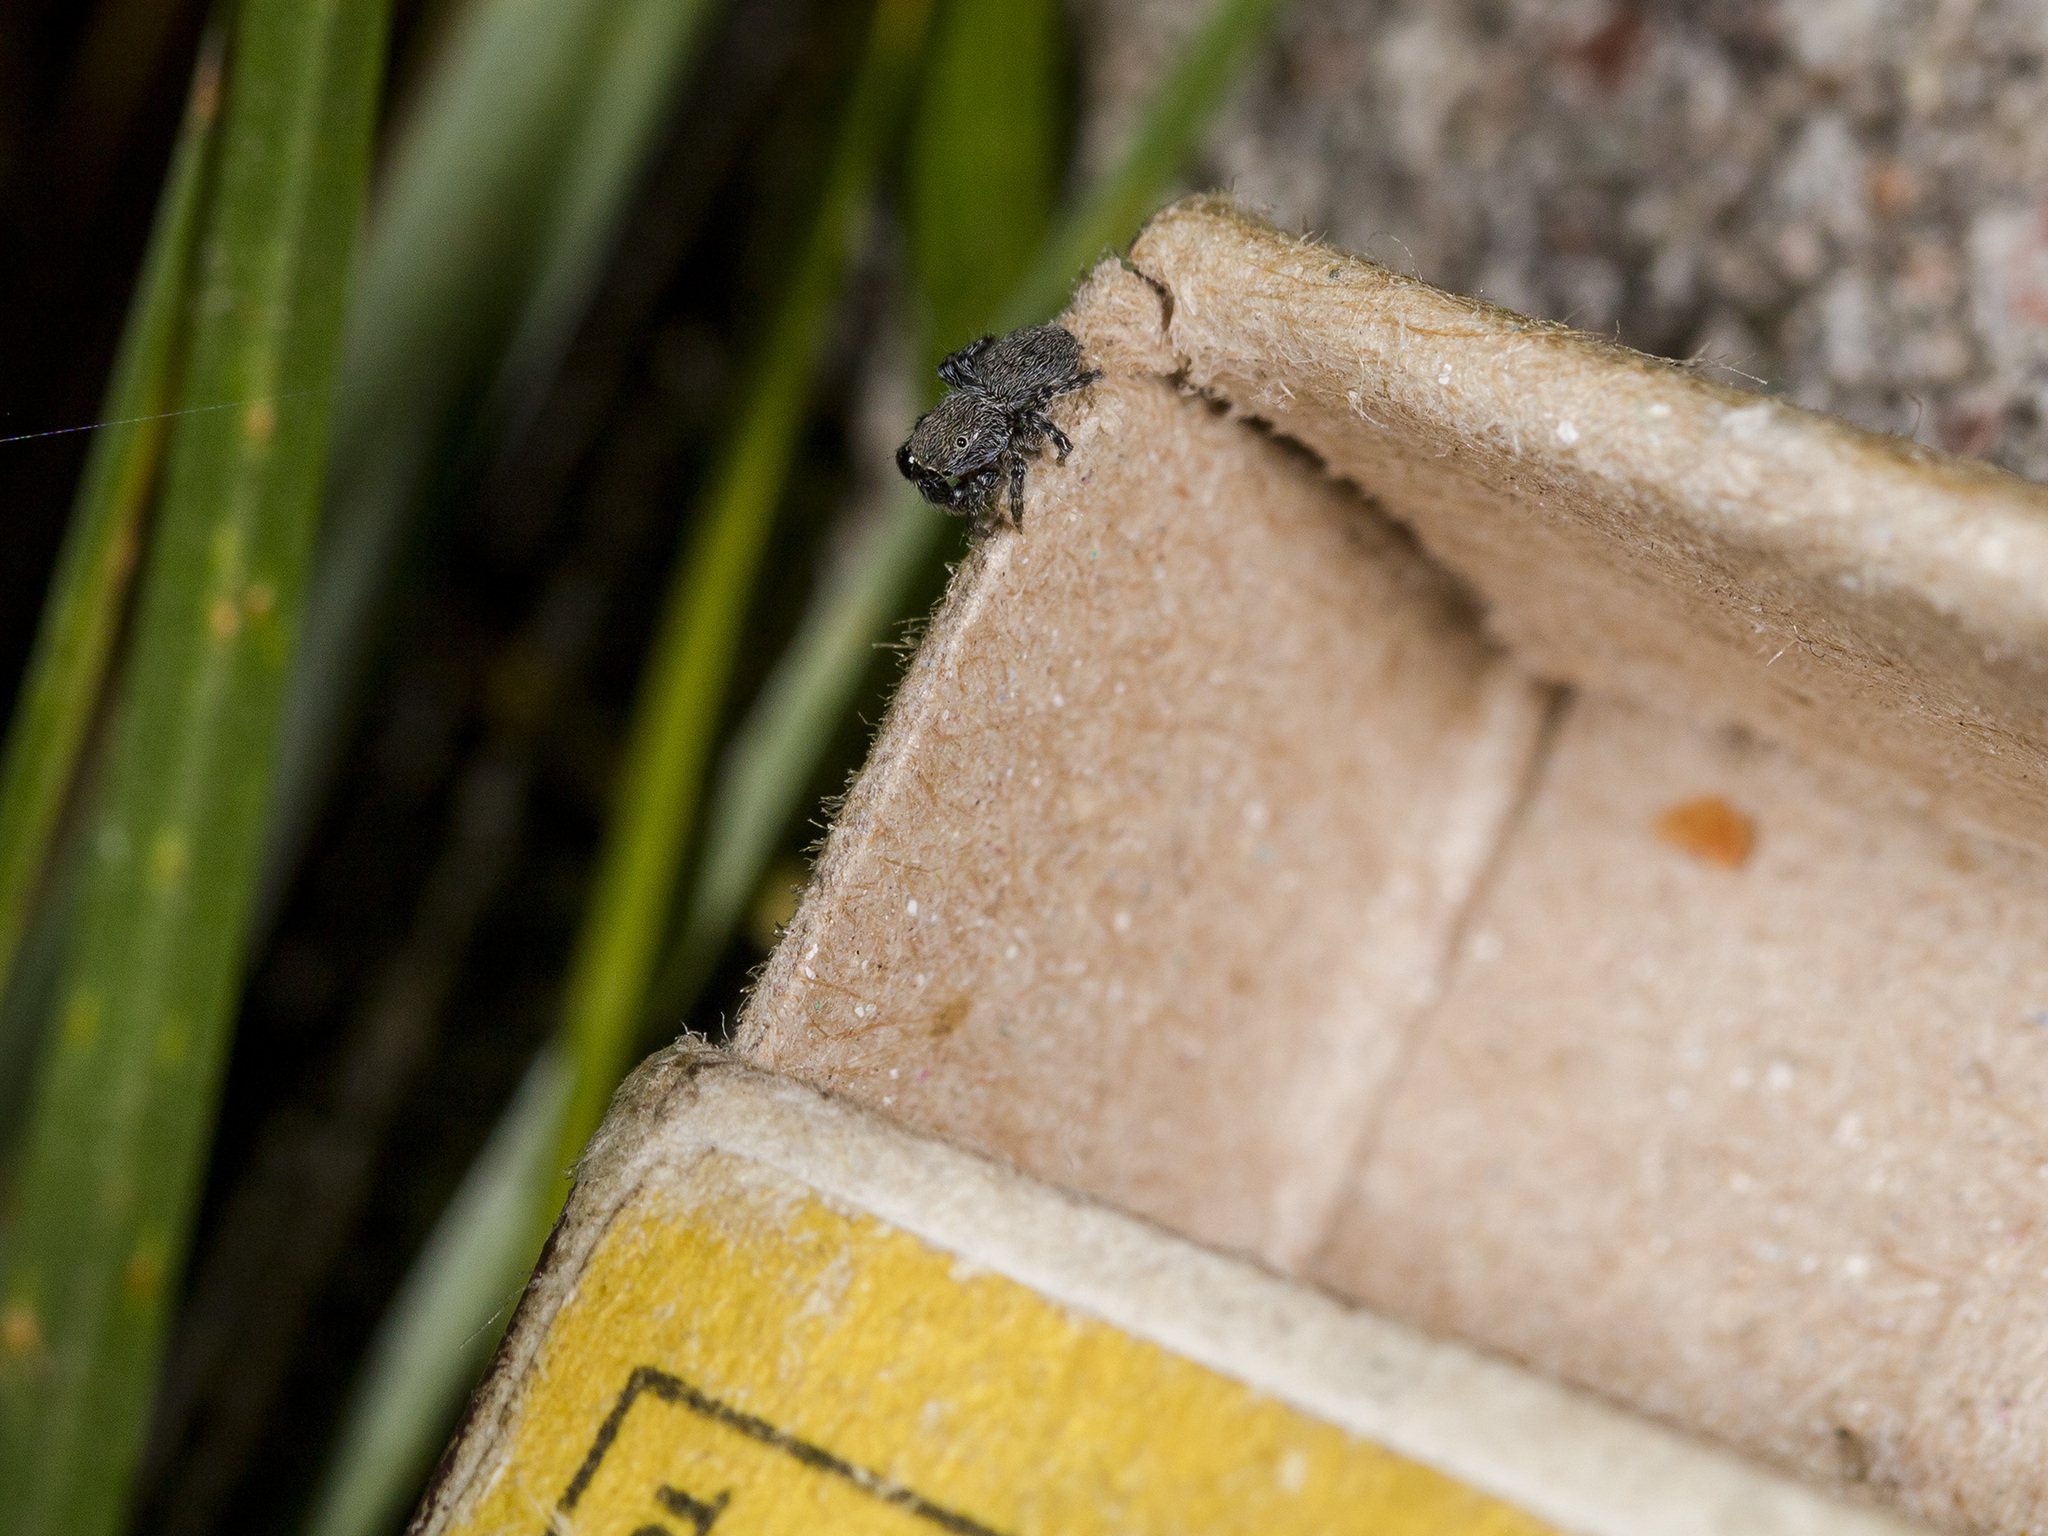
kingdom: Animalia
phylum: Arthropoda
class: Arachnida
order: Araneae
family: Salticidae
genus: Talavera
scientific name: Talavera aperta
